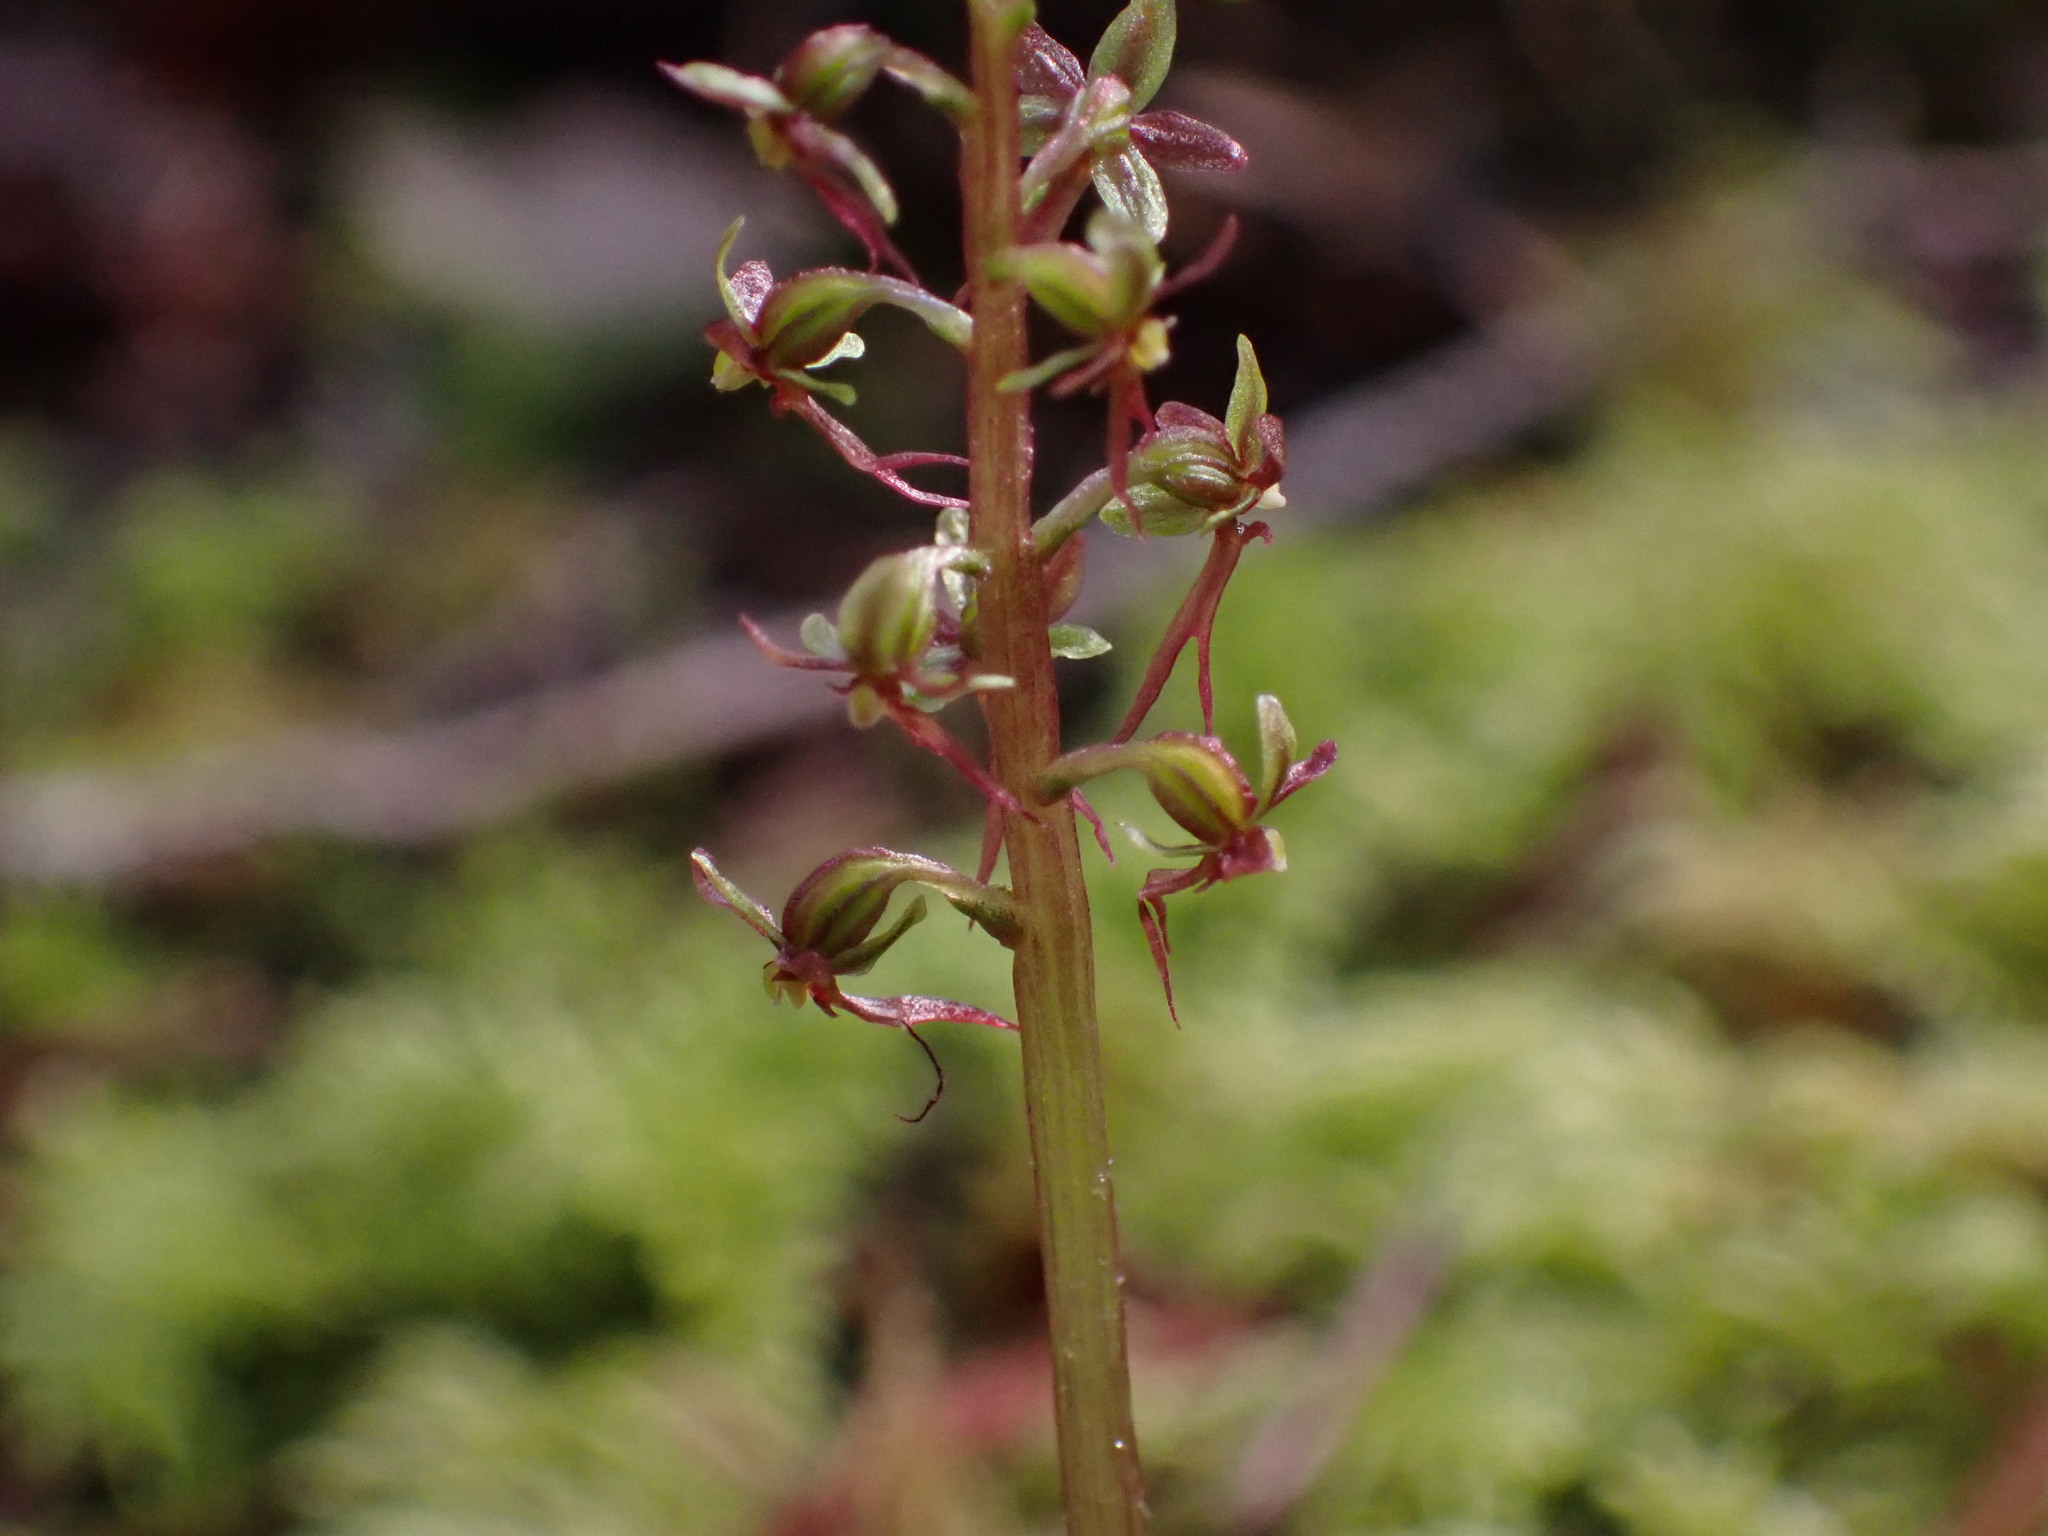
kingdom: Plantae
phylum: Tracheophyta
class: Liliopsida
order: Asparagales
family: Orchidaceae
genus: Neottia
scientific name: Neottia cordata
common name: Lesser twayblade
